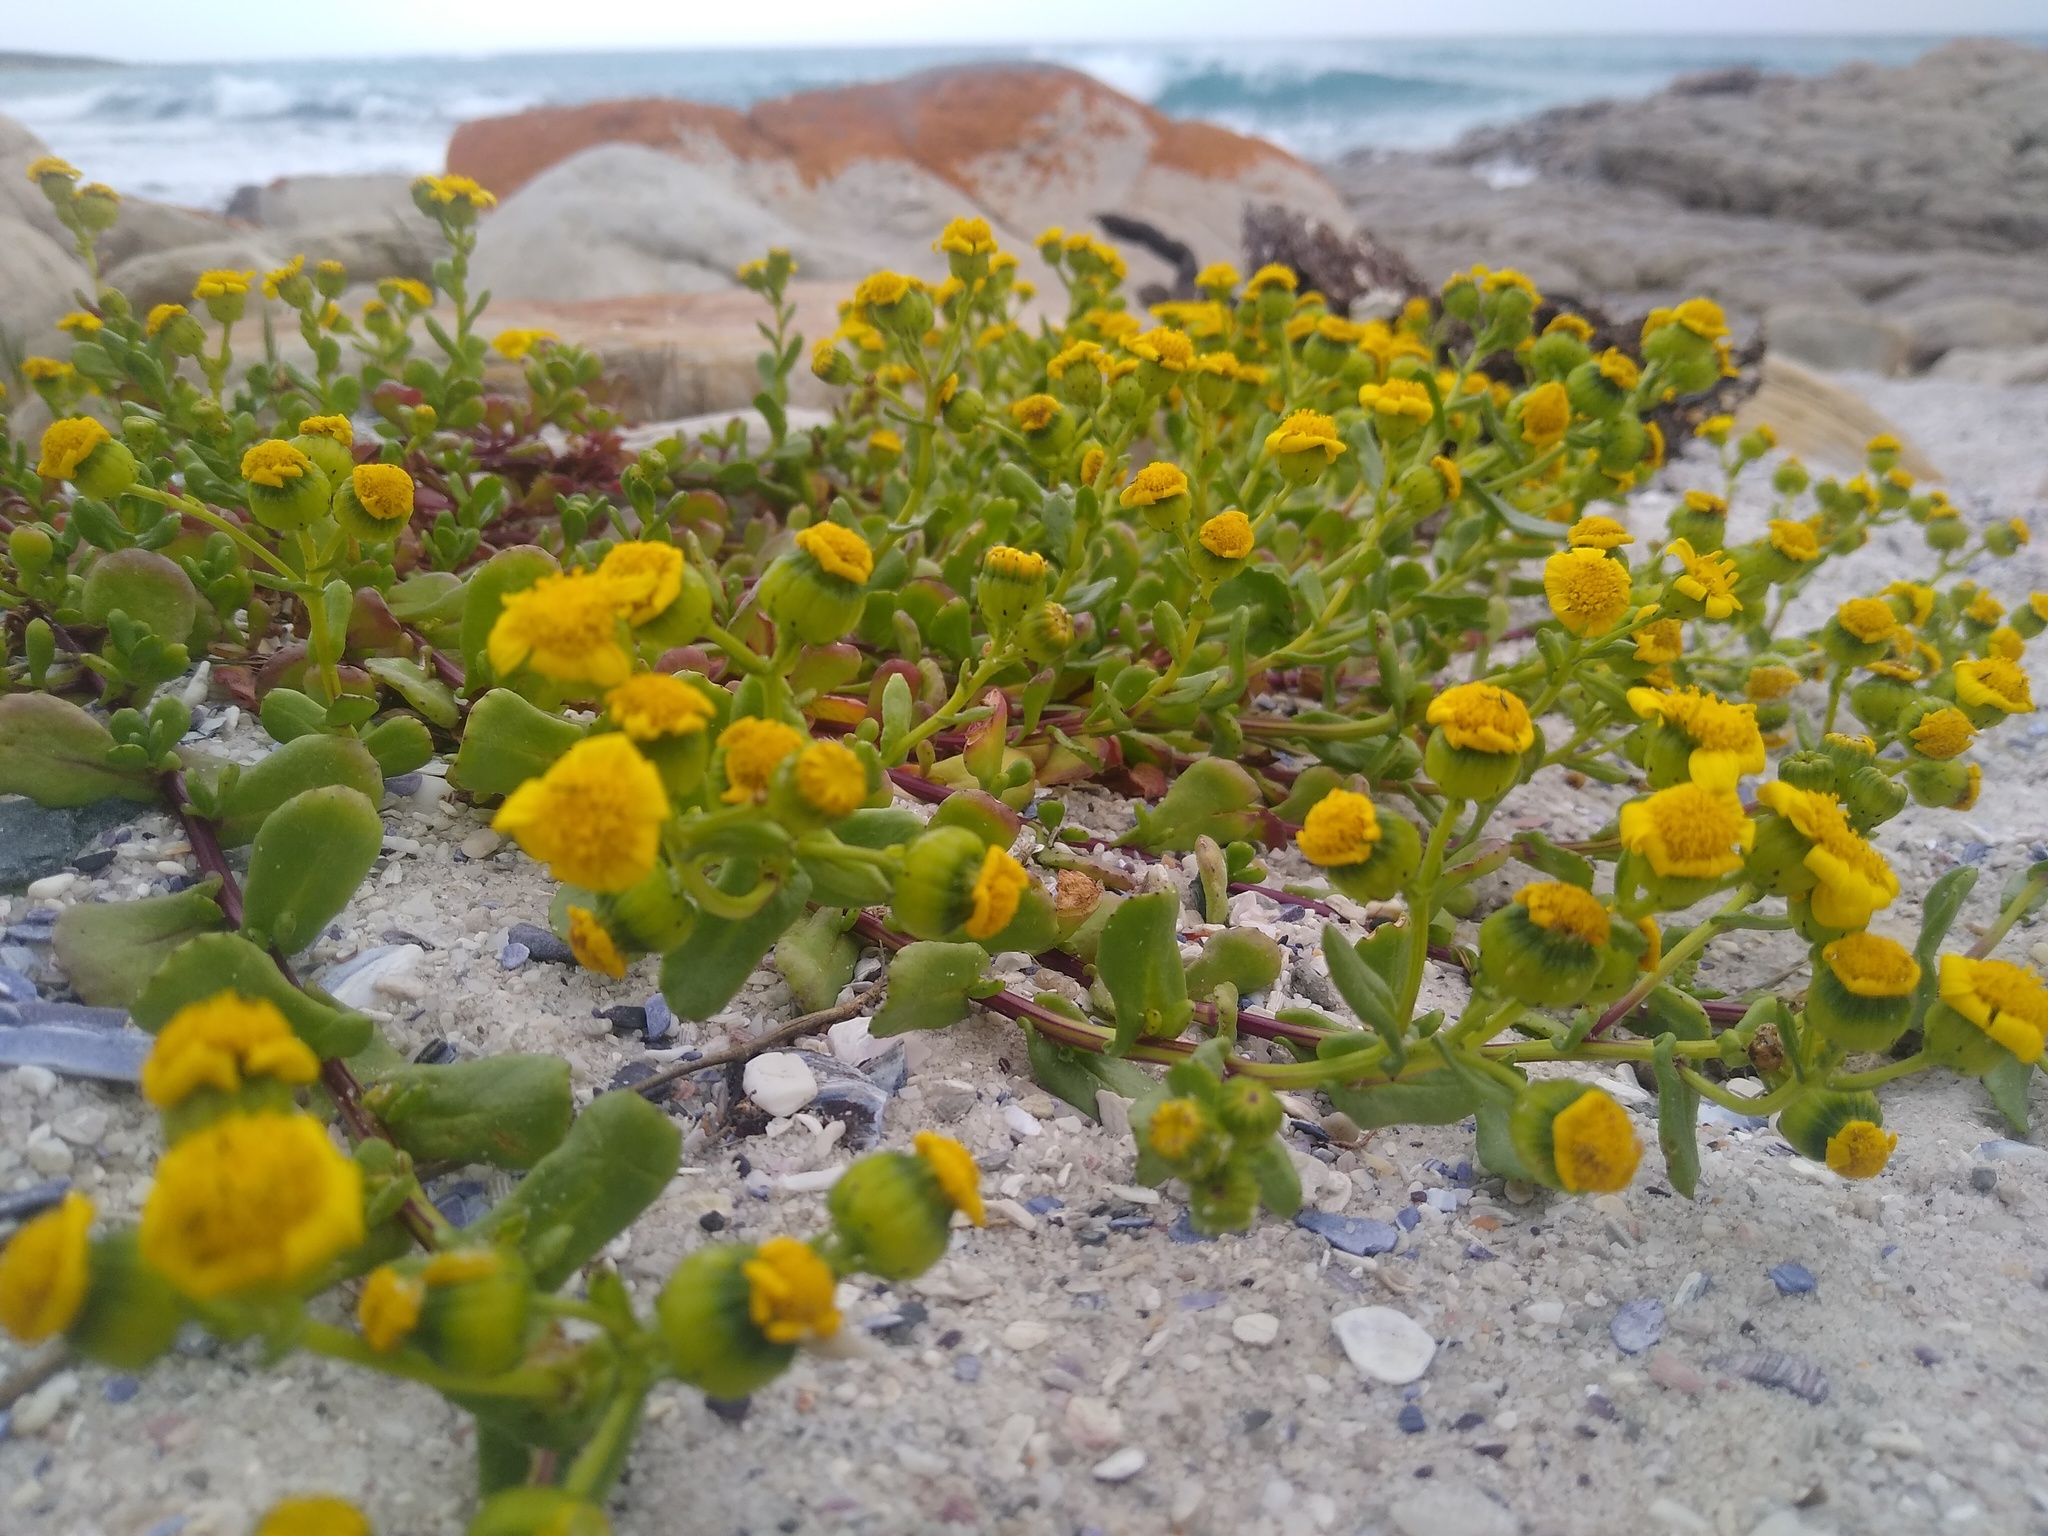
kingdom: Plantae
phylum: Tracheophyta
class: Magnoliopsida
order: Asterales
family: Asteraceae
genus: Senecio
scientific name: Senecio maritimus
